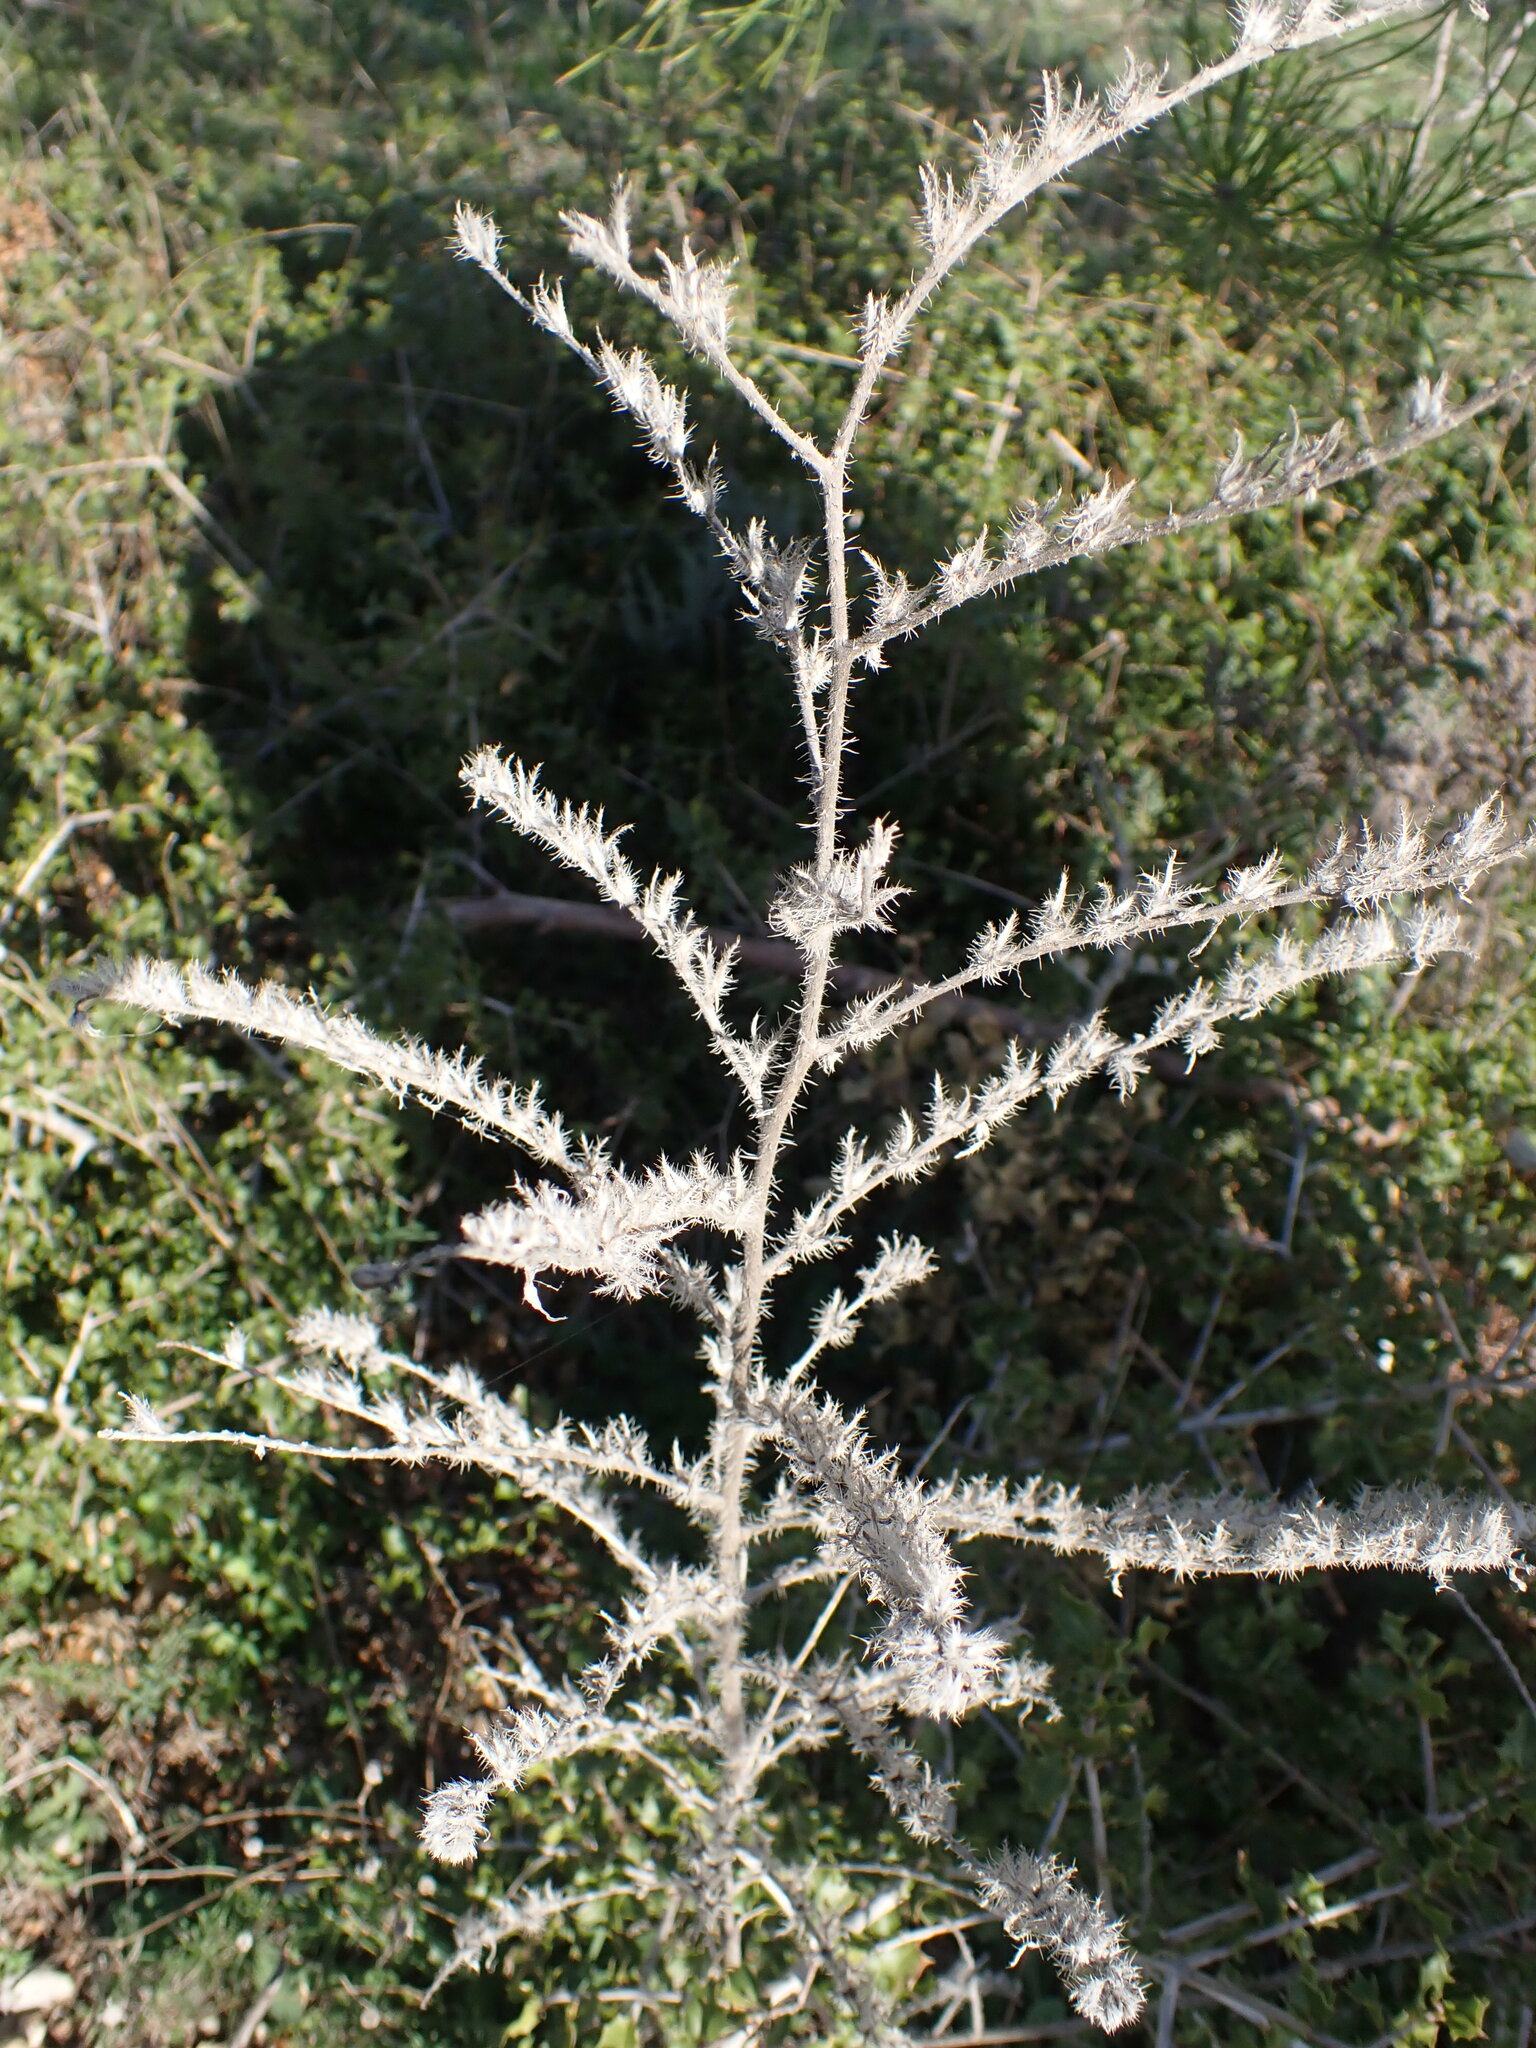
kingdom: Plantae
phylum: Tracheophyta
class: Magnoliopsida
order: Boraginales
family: Boraginaceae
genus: Echium
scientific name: Echium vulgare
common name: Common viper's bugloss
